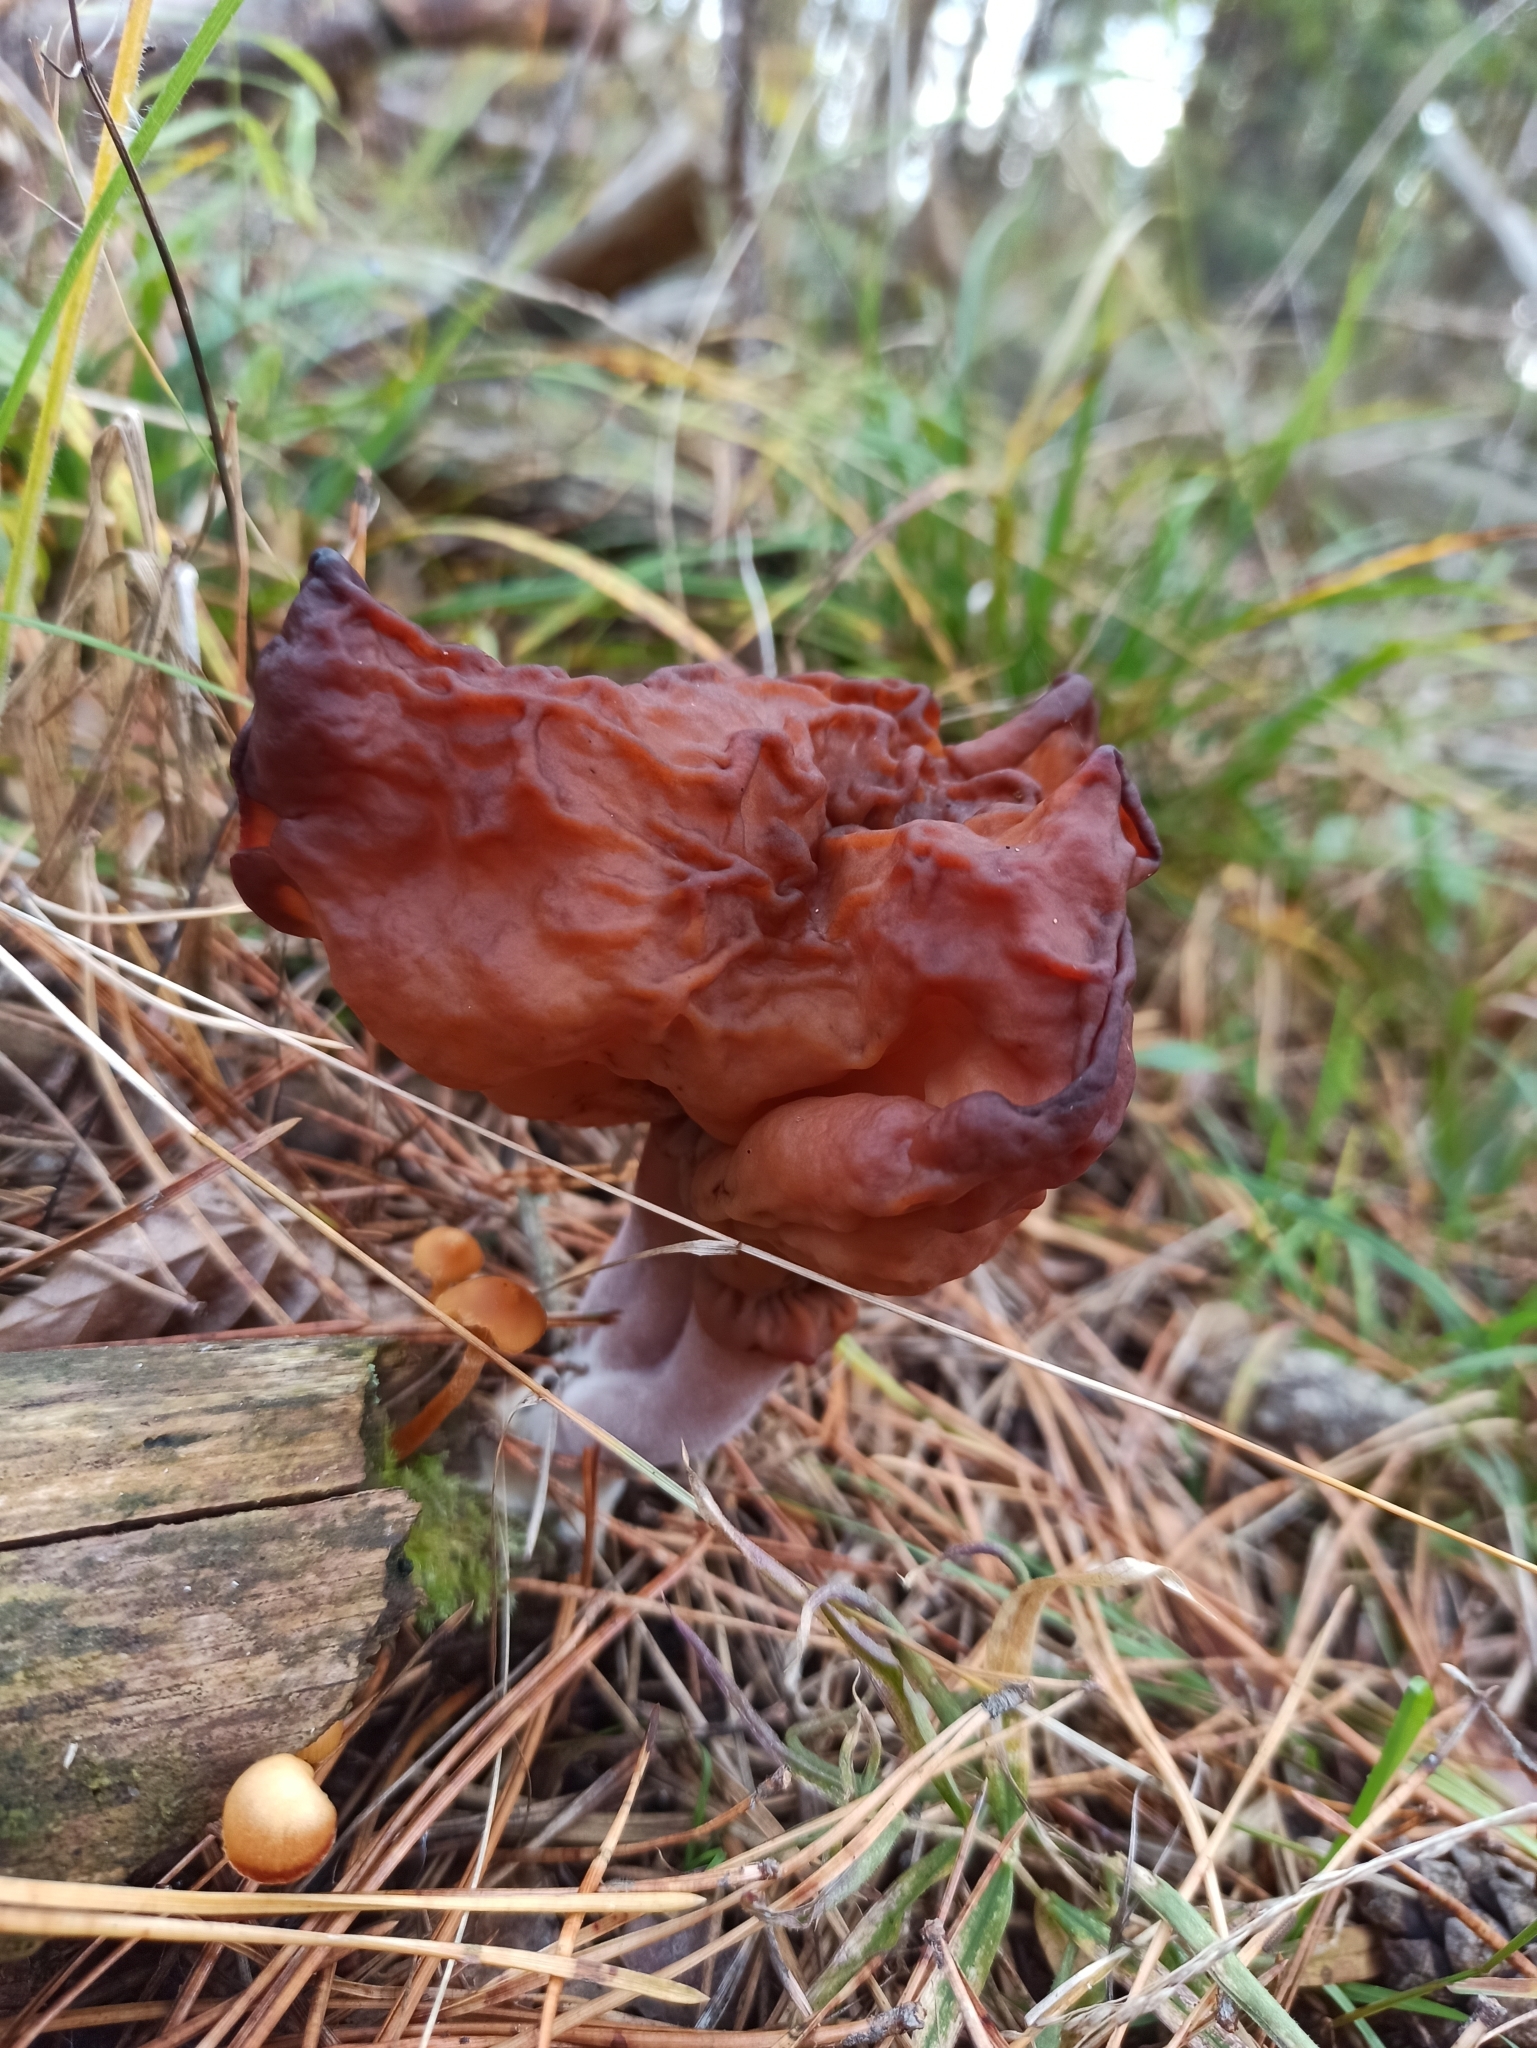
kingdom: Fungi
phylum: Ascomycota
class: Pezizomycetes
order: Pezizales
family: Discinaceae
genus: Gyromitra
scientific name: Gyromitra infula
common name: Pouched false morel
